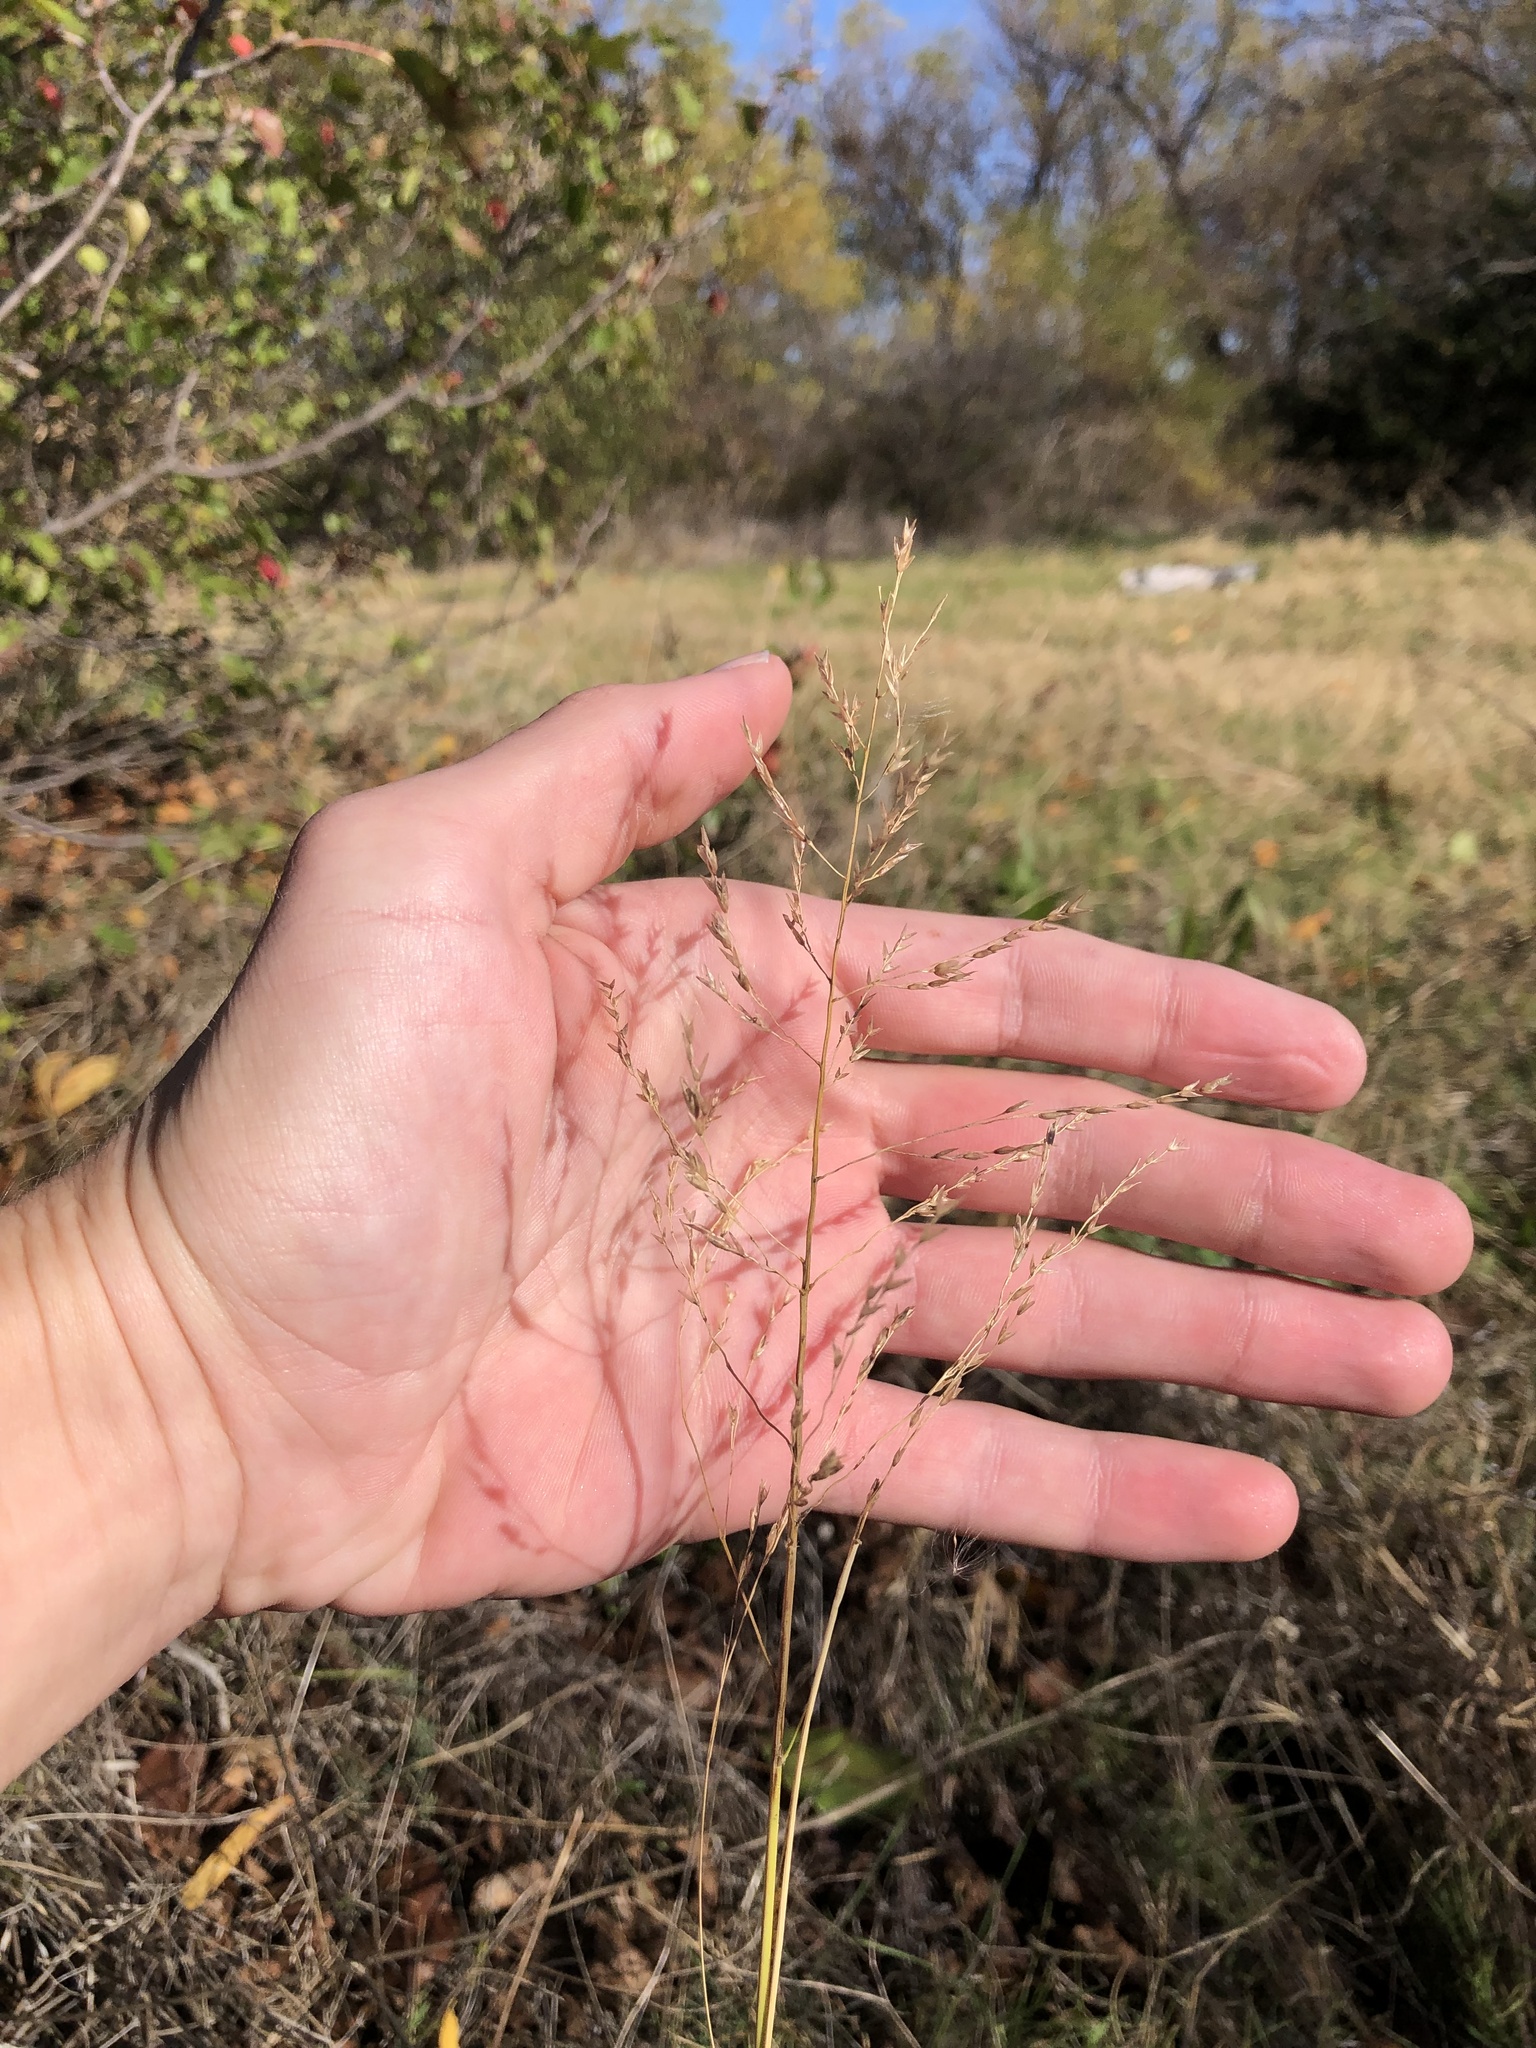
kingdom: Plantae
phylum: Tracheophyta
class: Liliopsida
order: Poales
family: Poaceae
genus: Tridens
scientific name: Tridens flavus
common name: Purpletop
